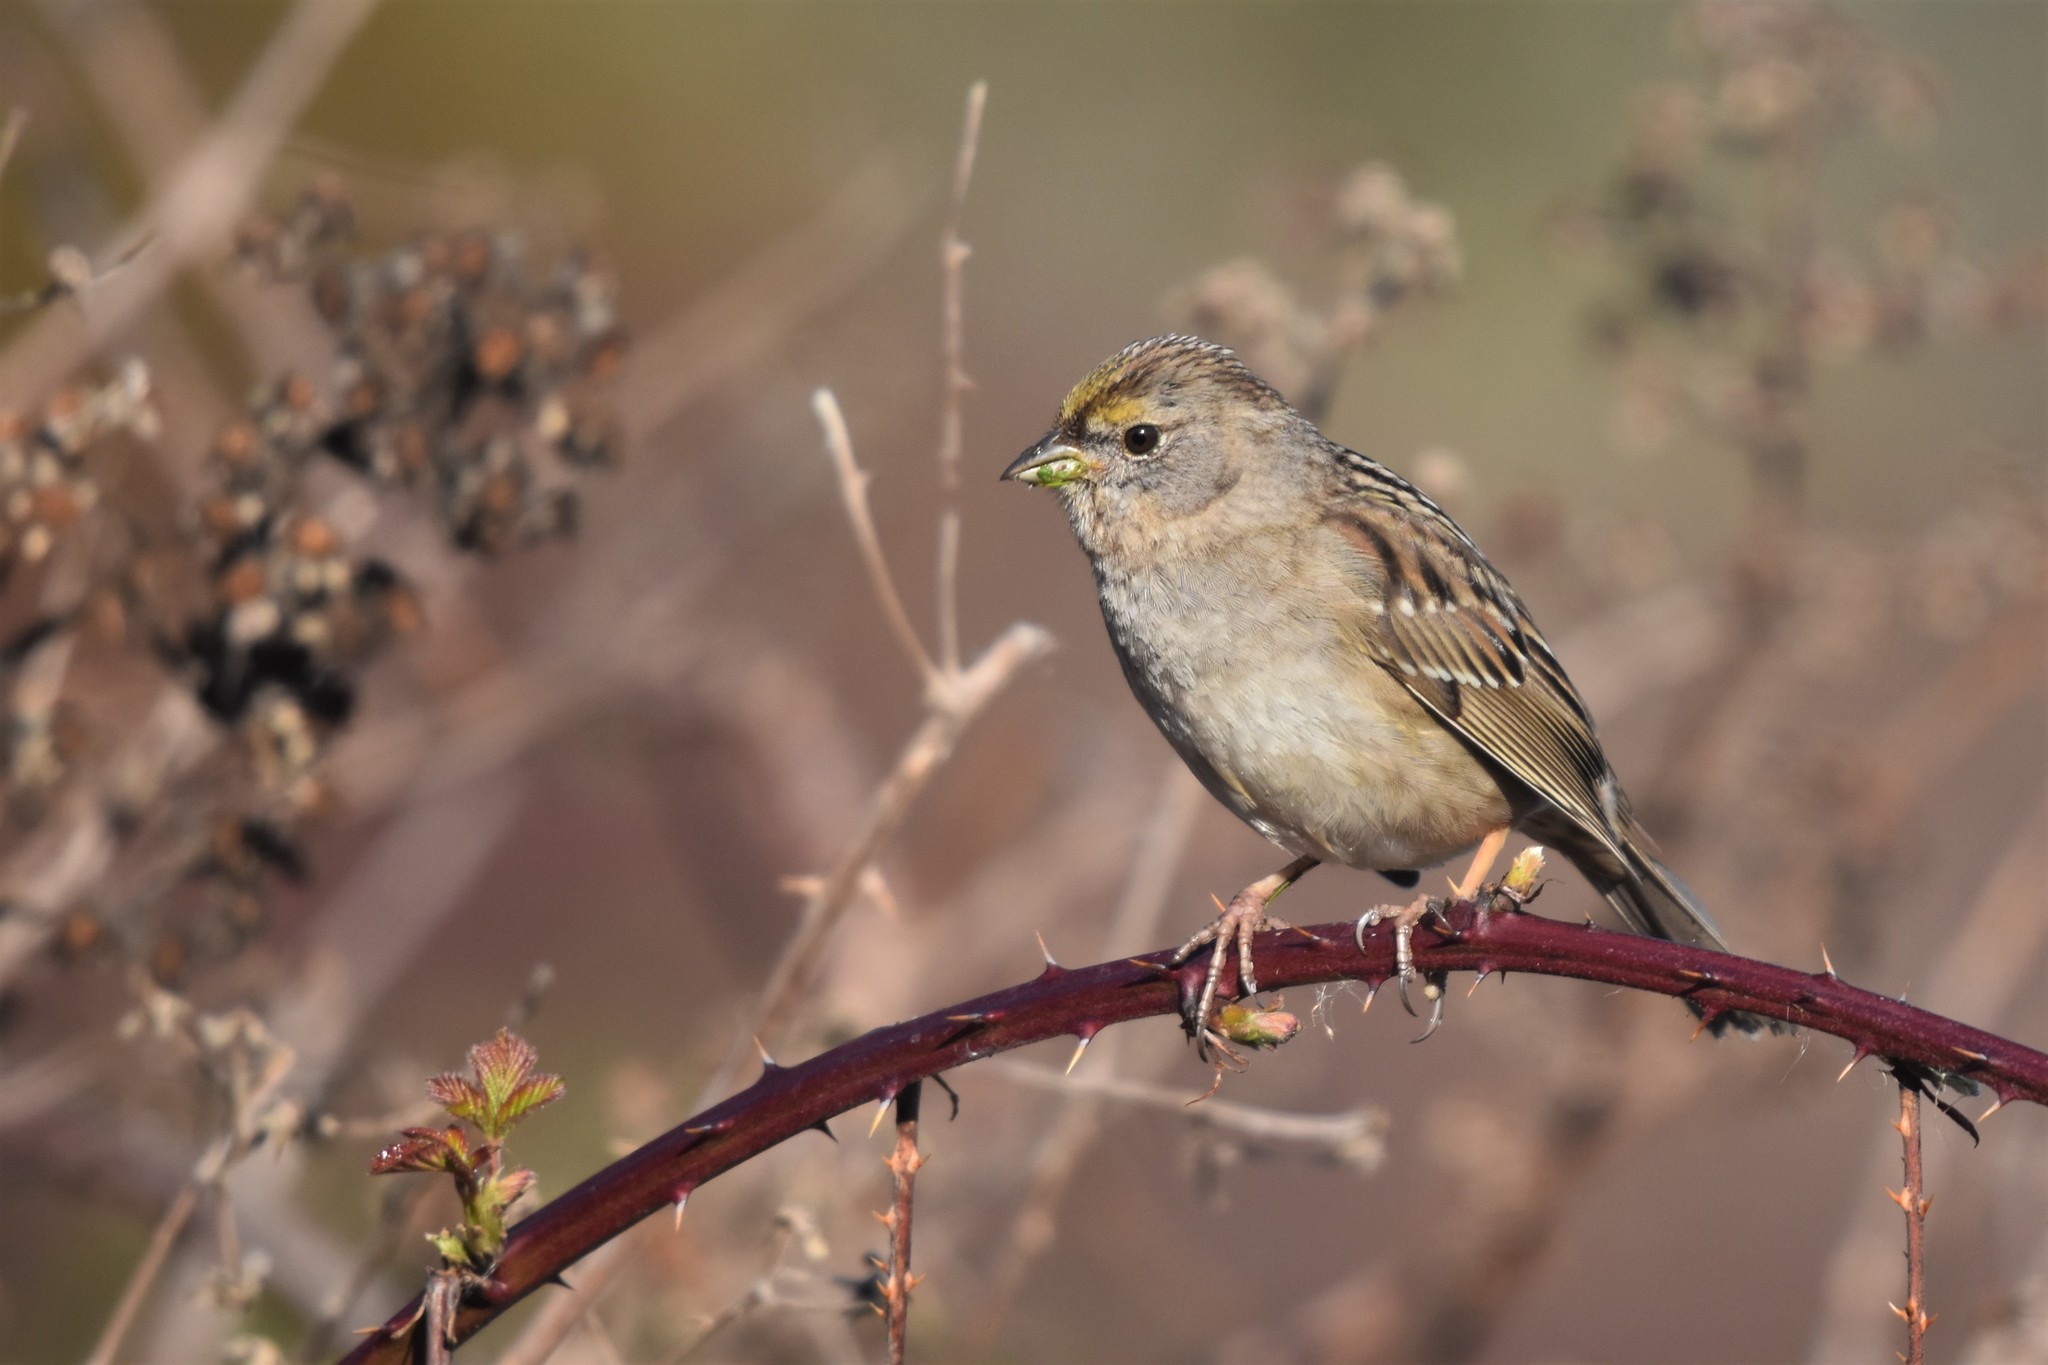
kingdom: Animalia
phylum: Chordata
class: Aves
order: Passeriformes
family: Passerellidae
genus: Zonotrichia
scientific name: Zonotrichia atricapilla
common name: Golden-crowned sparrow
